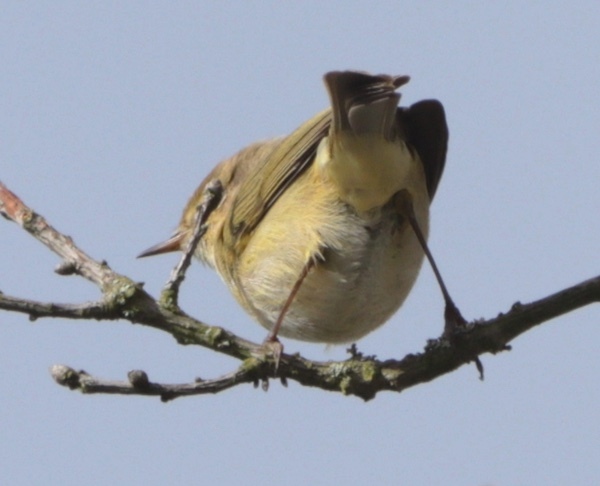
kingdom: Animalia
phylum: Chordata
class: Aves
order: Passeriformes
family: Phylloscopidae
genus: Phylloscopus
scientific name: Phylloscopus collybita
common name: Common chiffchaff
